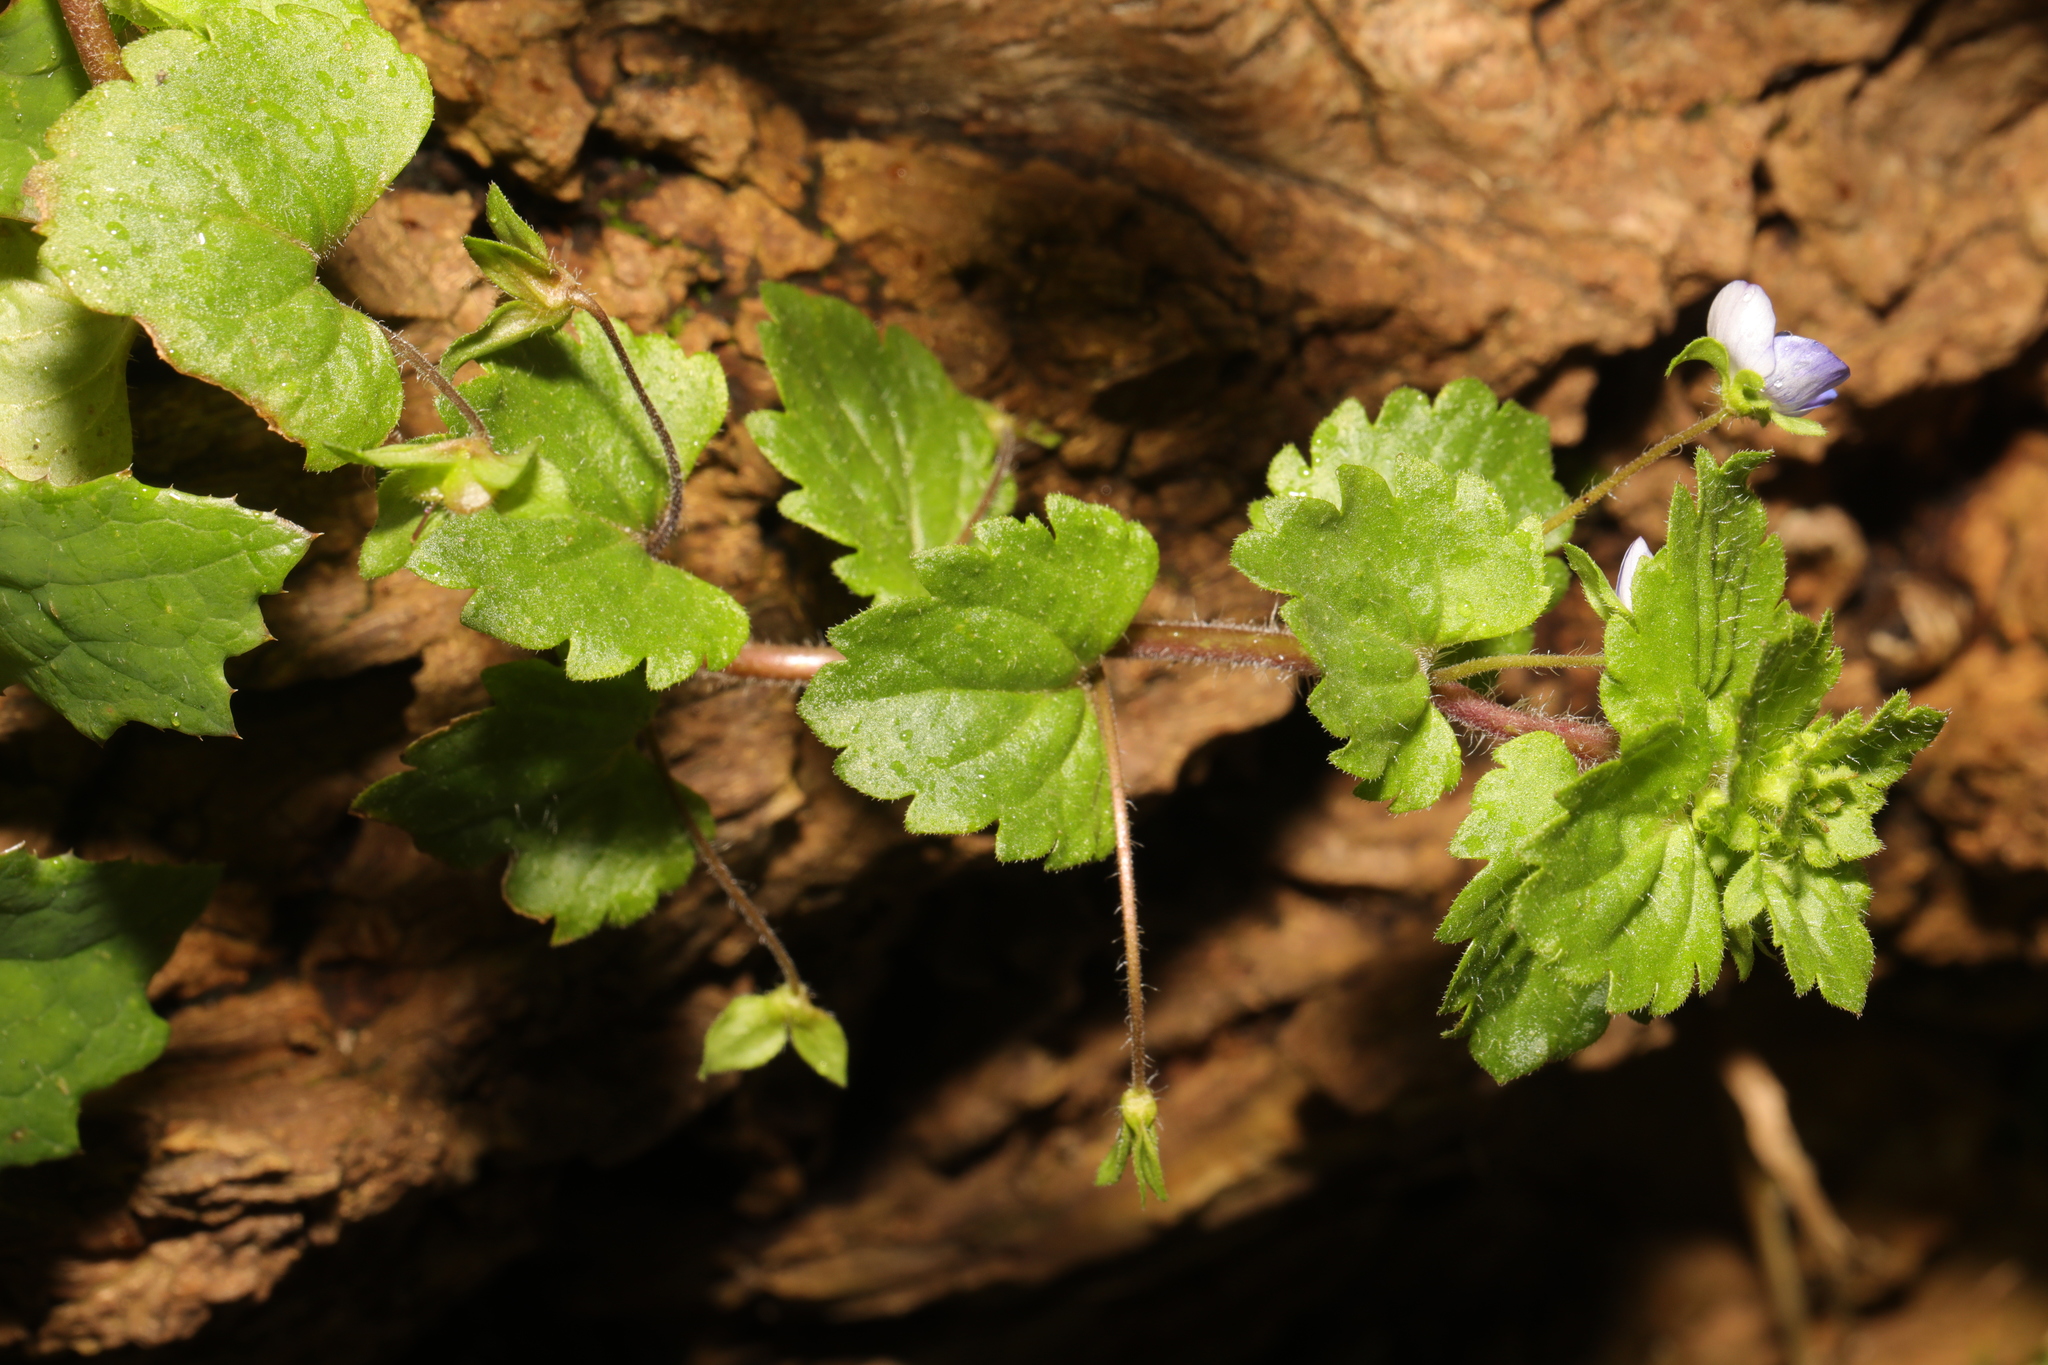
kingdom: Plantae
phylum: Tracheophyta
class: Magnoliopsida
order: Lamiales
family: Plantaginaceae
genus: Veronica
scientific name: Veronica persica
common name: Common field-speedwell
